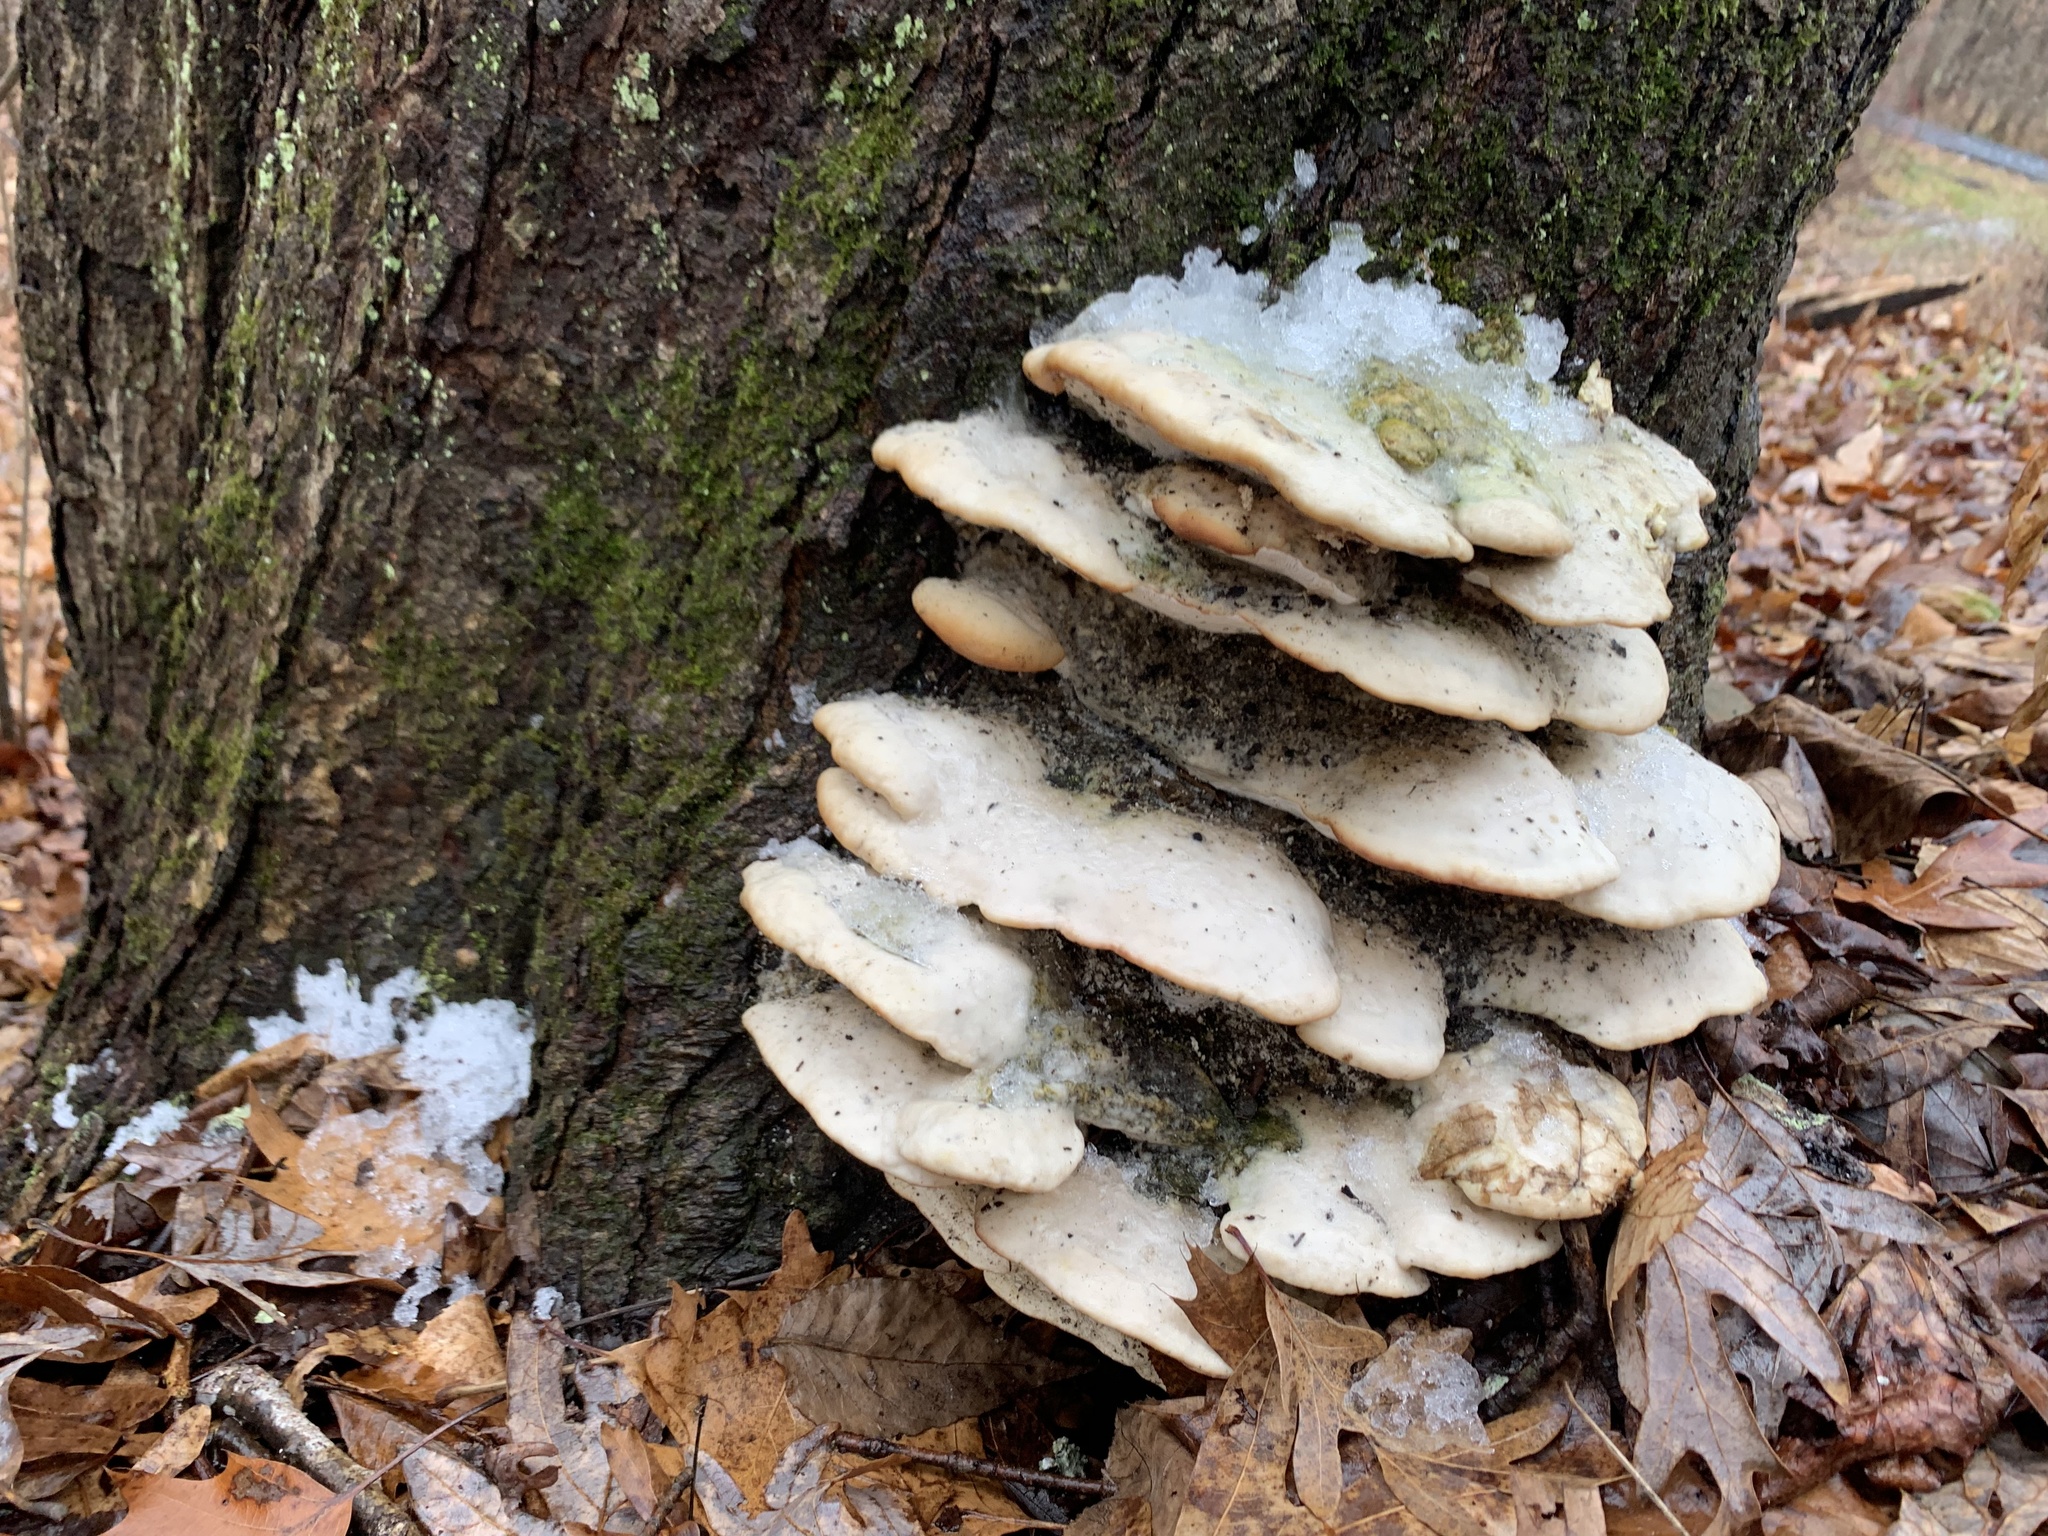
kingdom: Fungi
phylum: Basidiomycota
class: Agaricomycetes
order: Hymenochaetales
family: Oxyporaceae
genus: Oxyporus
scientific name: Oxyporus populinus
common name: Poplar bracket
